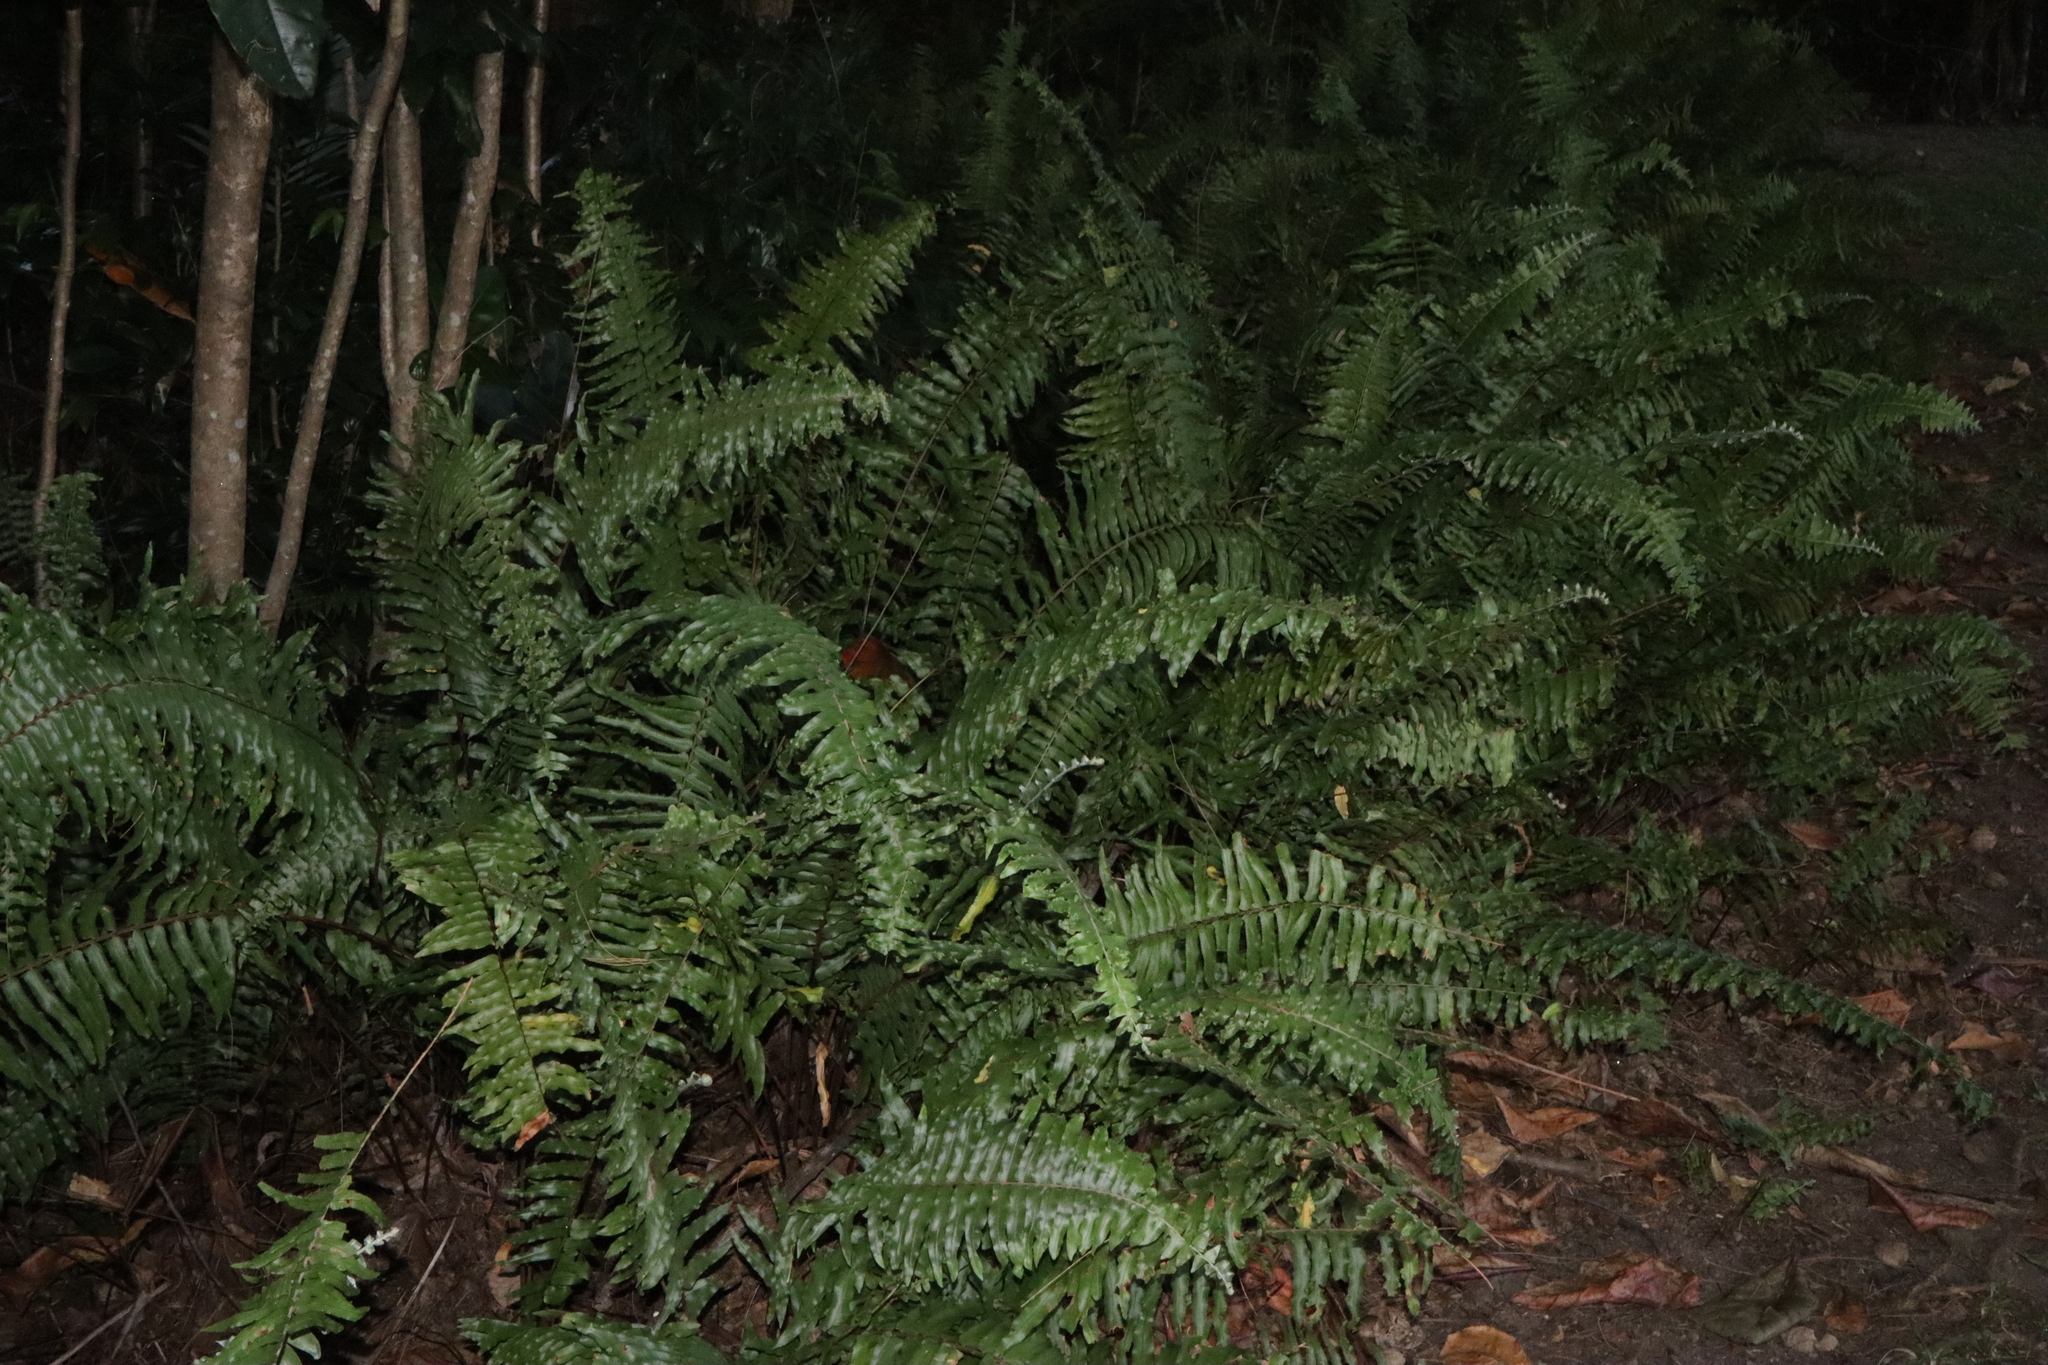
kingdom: Plantae
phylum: Tracheophyta
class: Polypodiopsida
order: Polypodiales
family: Nephrolepidaceae
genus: Nephrolepis
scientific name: Nephrolepis brownii
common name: Asian swordfern
